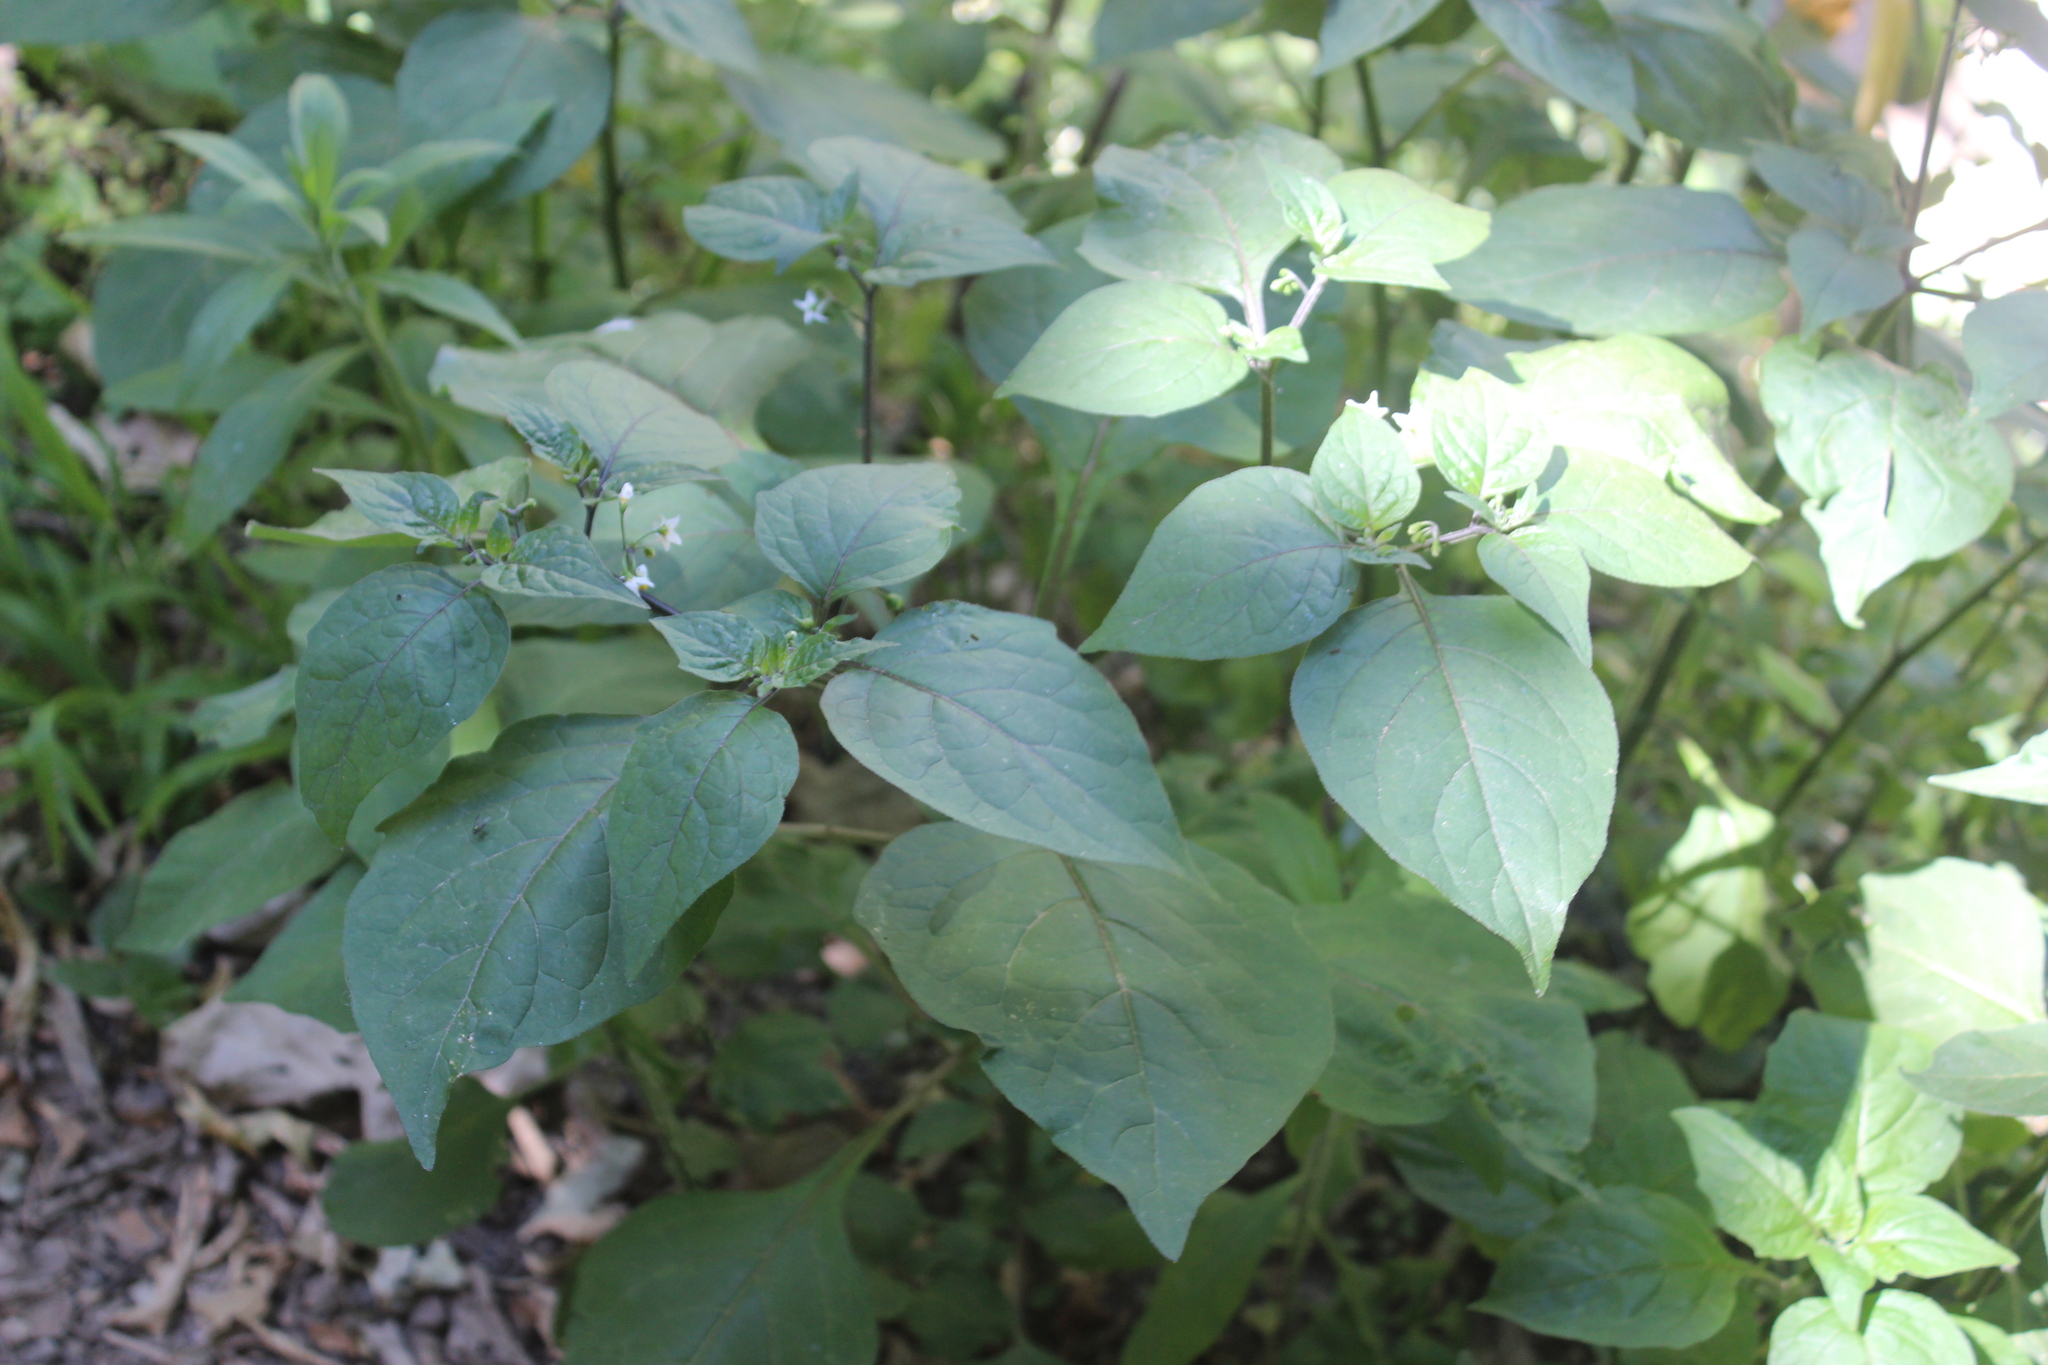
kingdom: Plantae
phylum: Tracheophyta
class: Magnoliopsida
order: Solanales
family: Solanaceae
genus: Solanum
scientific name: Solanum nigrum
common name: Black nightshade
